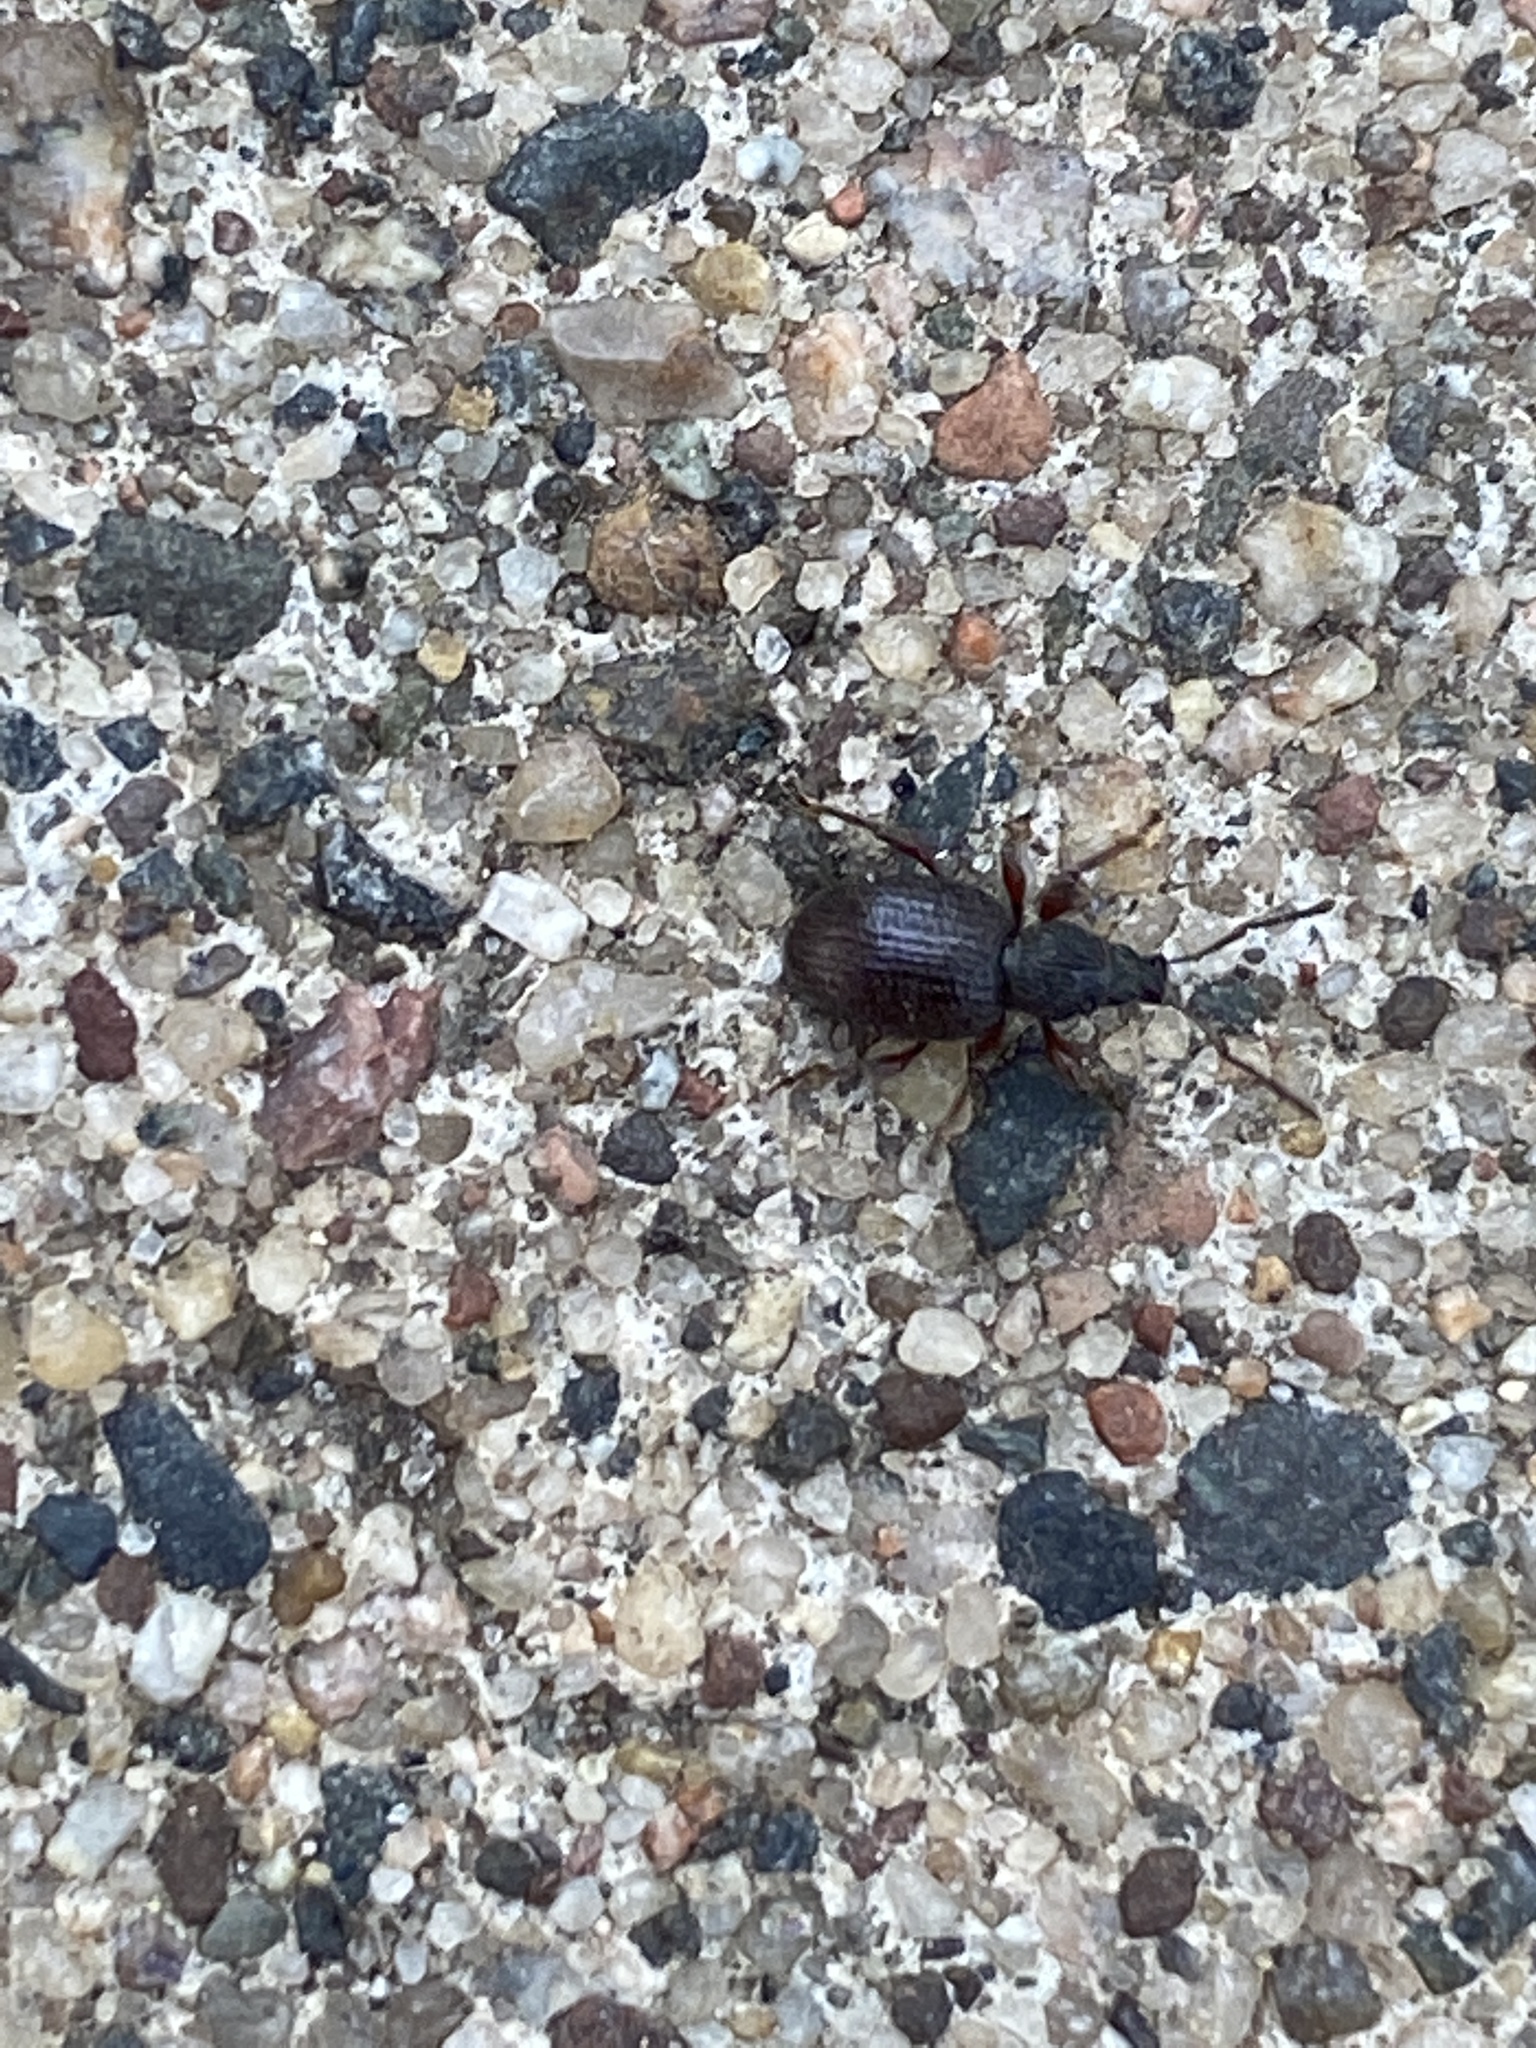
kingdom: Animalia
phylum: Arthropoda
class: Insecta
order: Coleoptera
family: Curculionidae
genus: Otiorhynchus
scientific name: Otiorhynchus ovatus
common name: Strawberry root weevil
